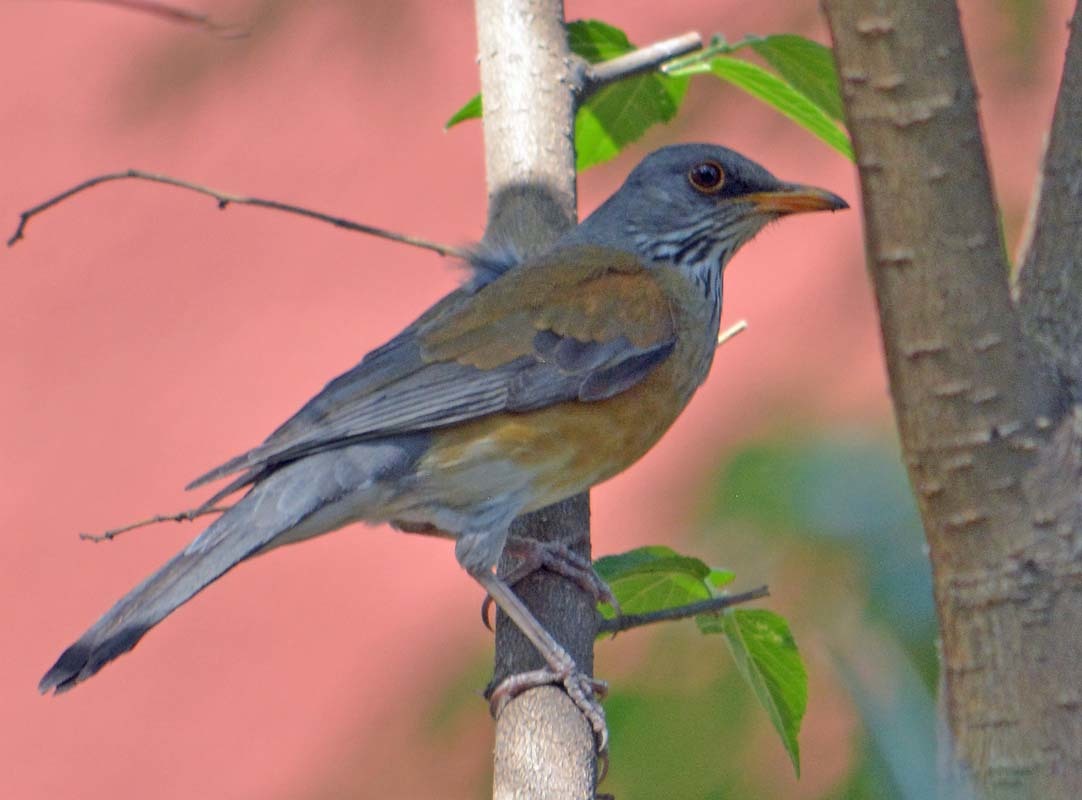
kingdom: Animalia
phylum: Chordata
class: Aves
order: Passeriformes
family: Turdidae
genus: Turdus
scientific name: Turdus rufopalliatus
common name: Rufous-backed robin
